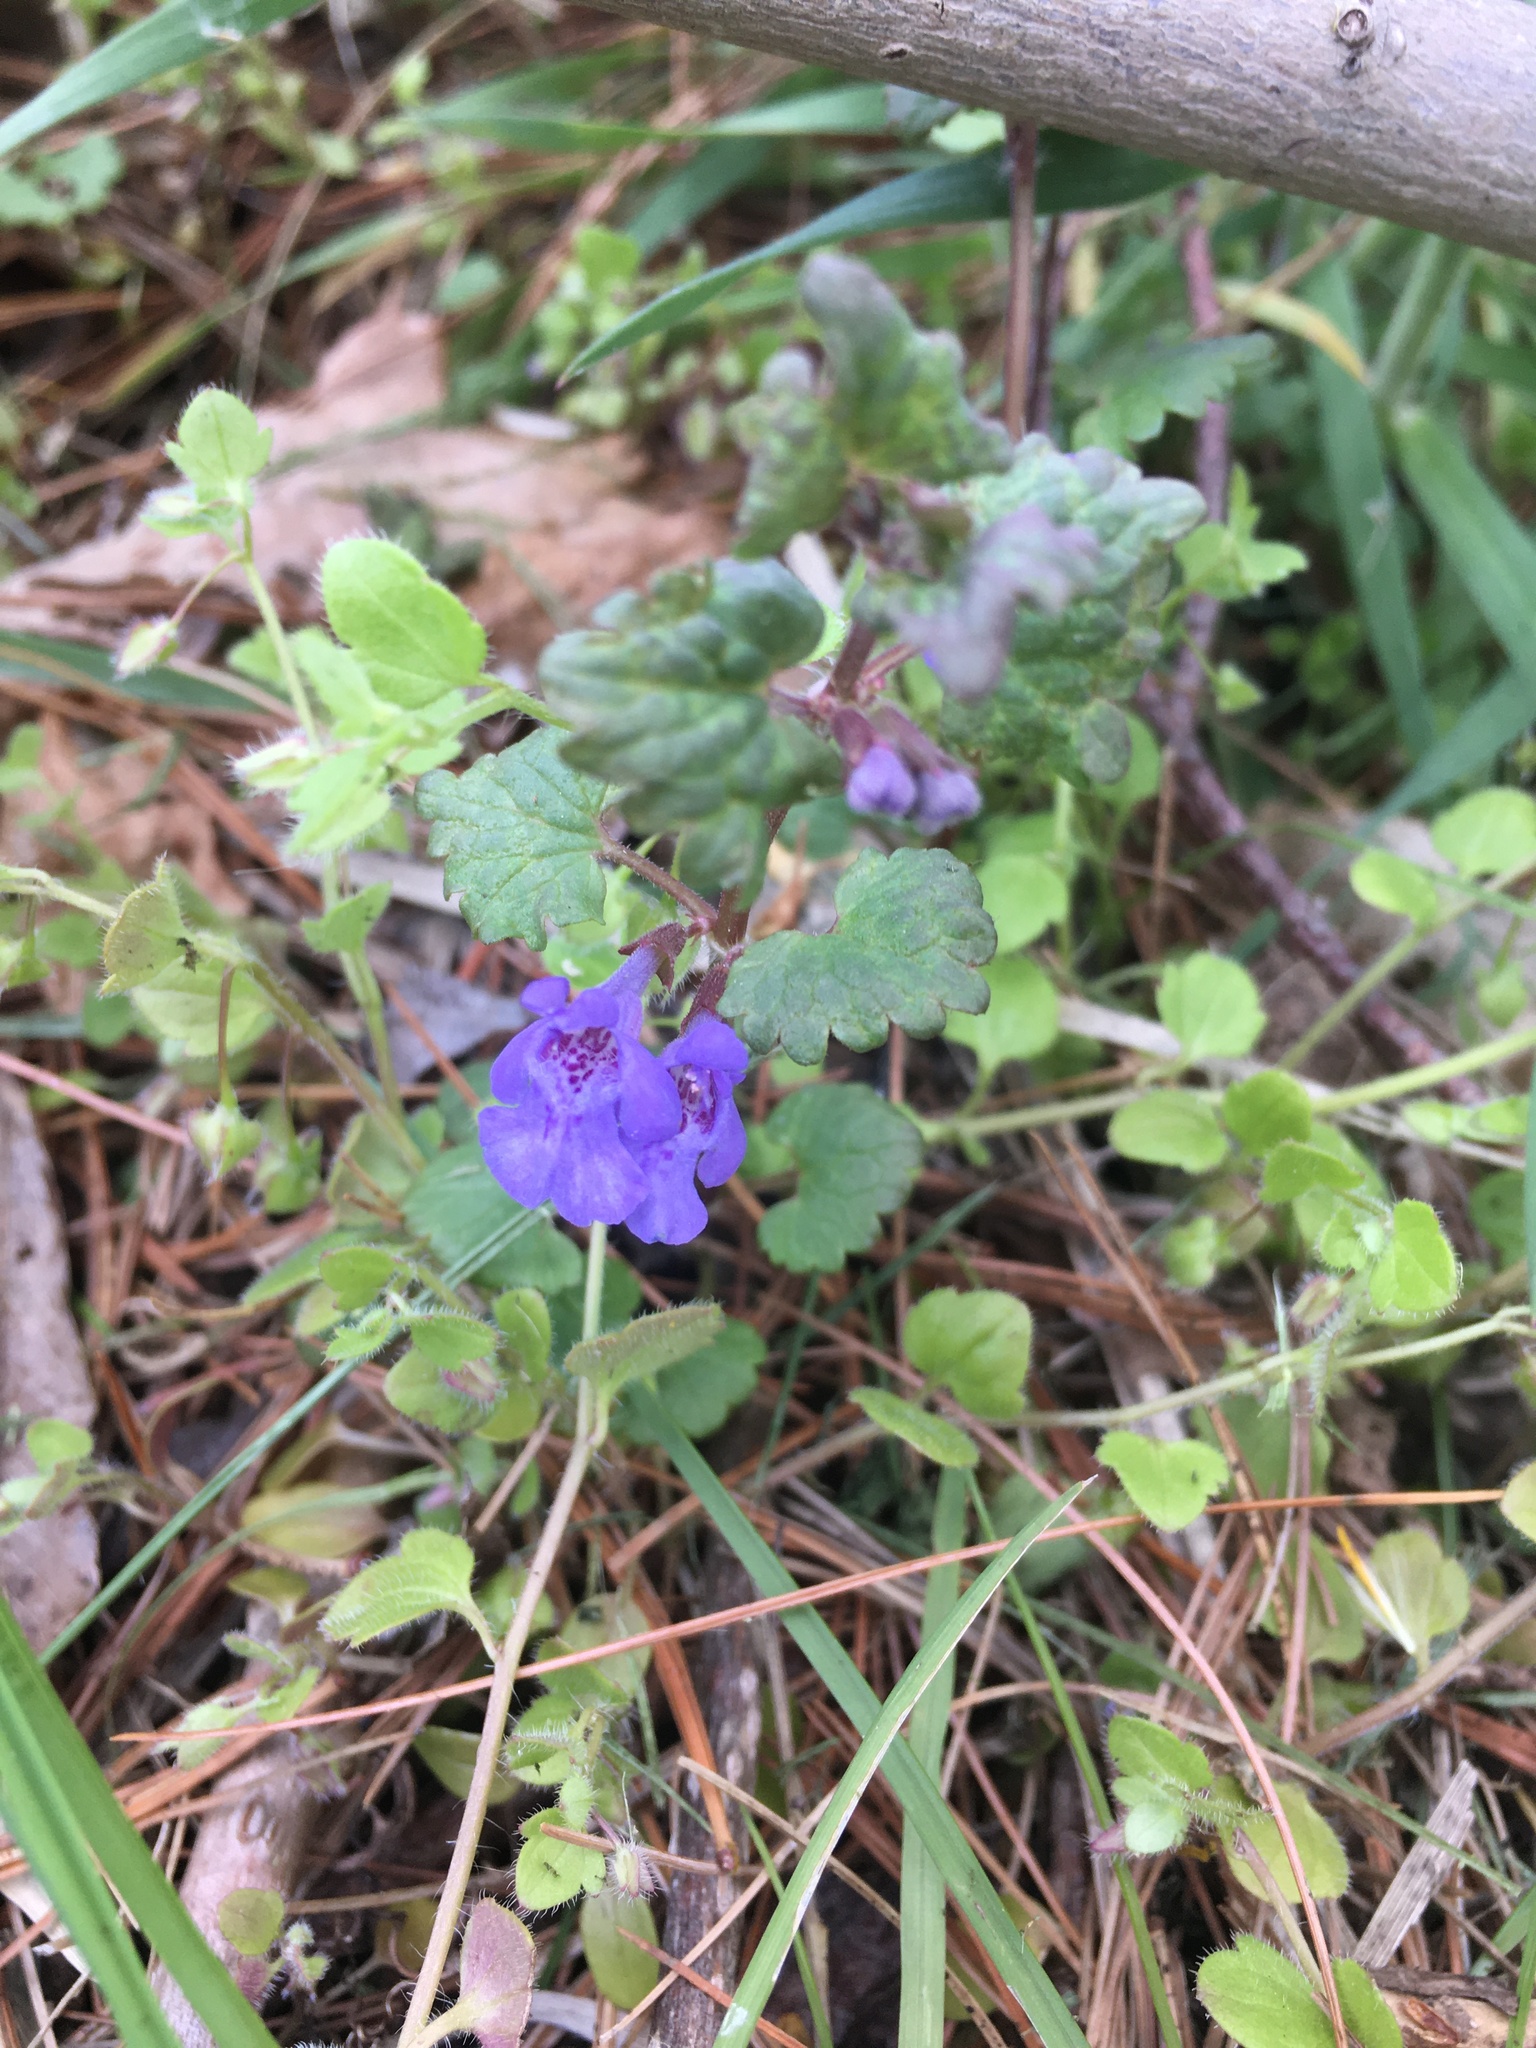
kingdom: Plantae
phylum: Tracheophyta
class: Magnoliopsida
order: Lamiales
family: Lamiaceae
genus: Glechoma
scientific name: Glechoma hederacea
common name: Ground ivy
